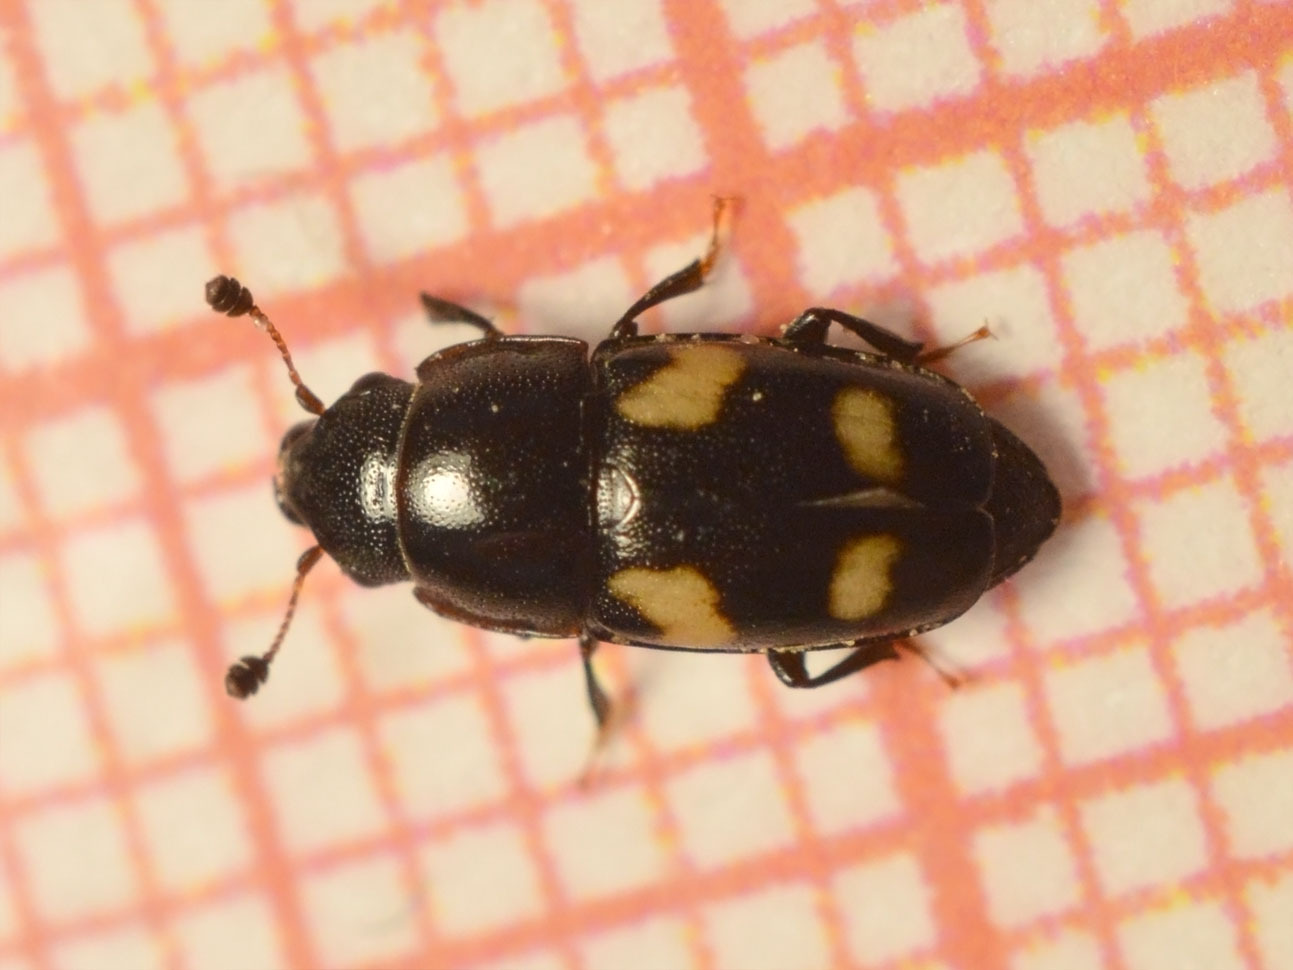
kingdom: Animalia
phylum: Arthropoda
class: Insecta
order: Coleoptera
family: Nitidulidae
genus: Glischrochilus
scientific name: Glischrochilus quadrisignatus
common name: Picnic beetle
